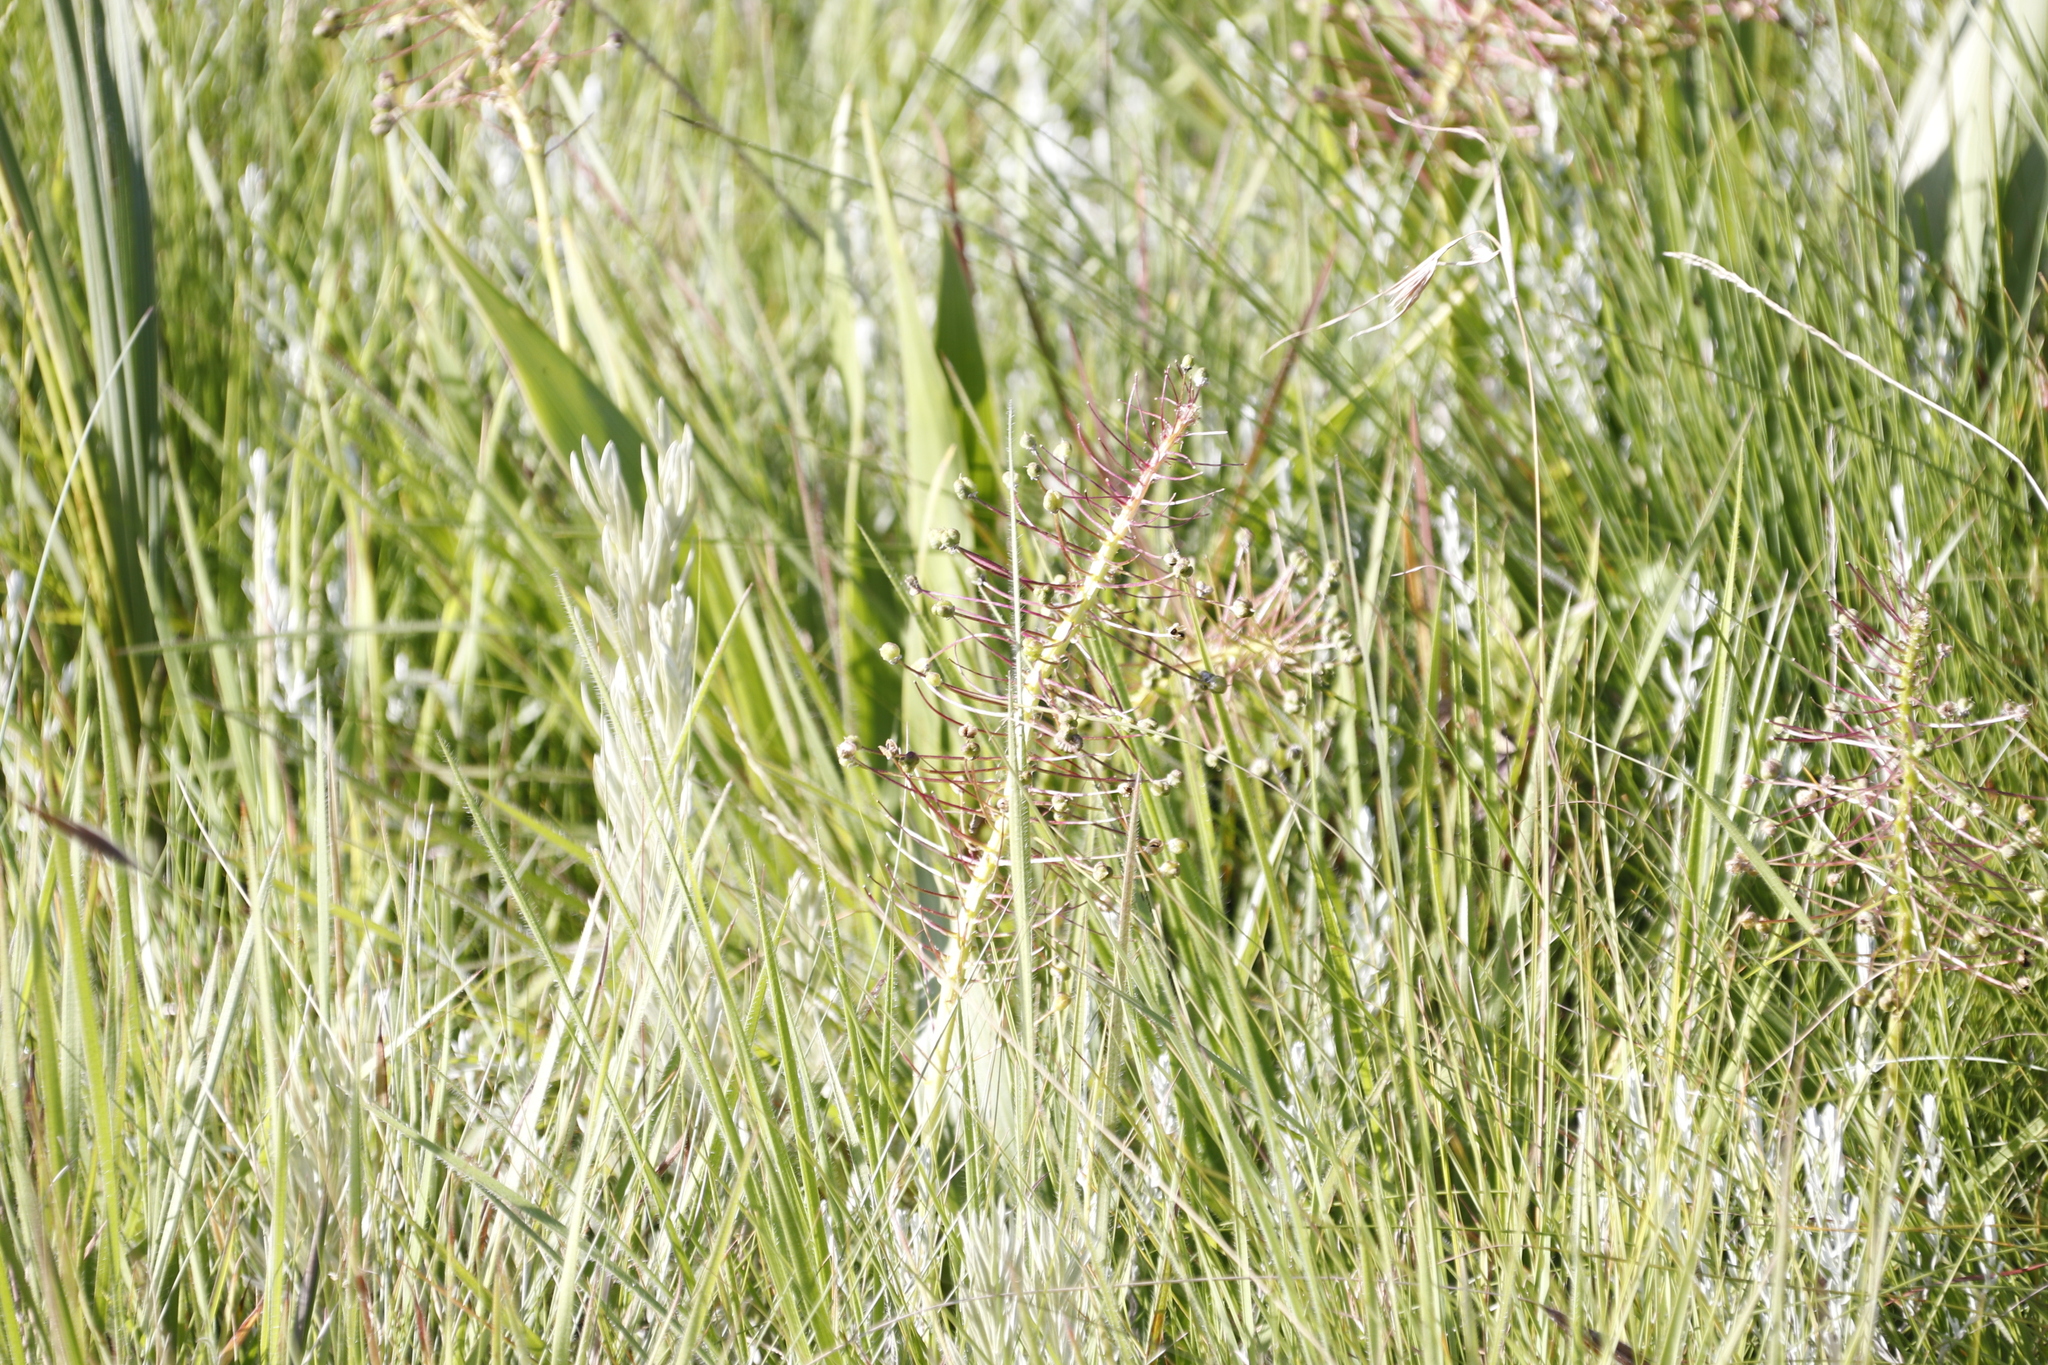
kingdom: Plantae
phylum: Tracheophyta
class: Liliopsida
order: Asparagales
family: Asparagaceae
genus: Schizocarphus
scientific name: Schizocarphus nervosus
